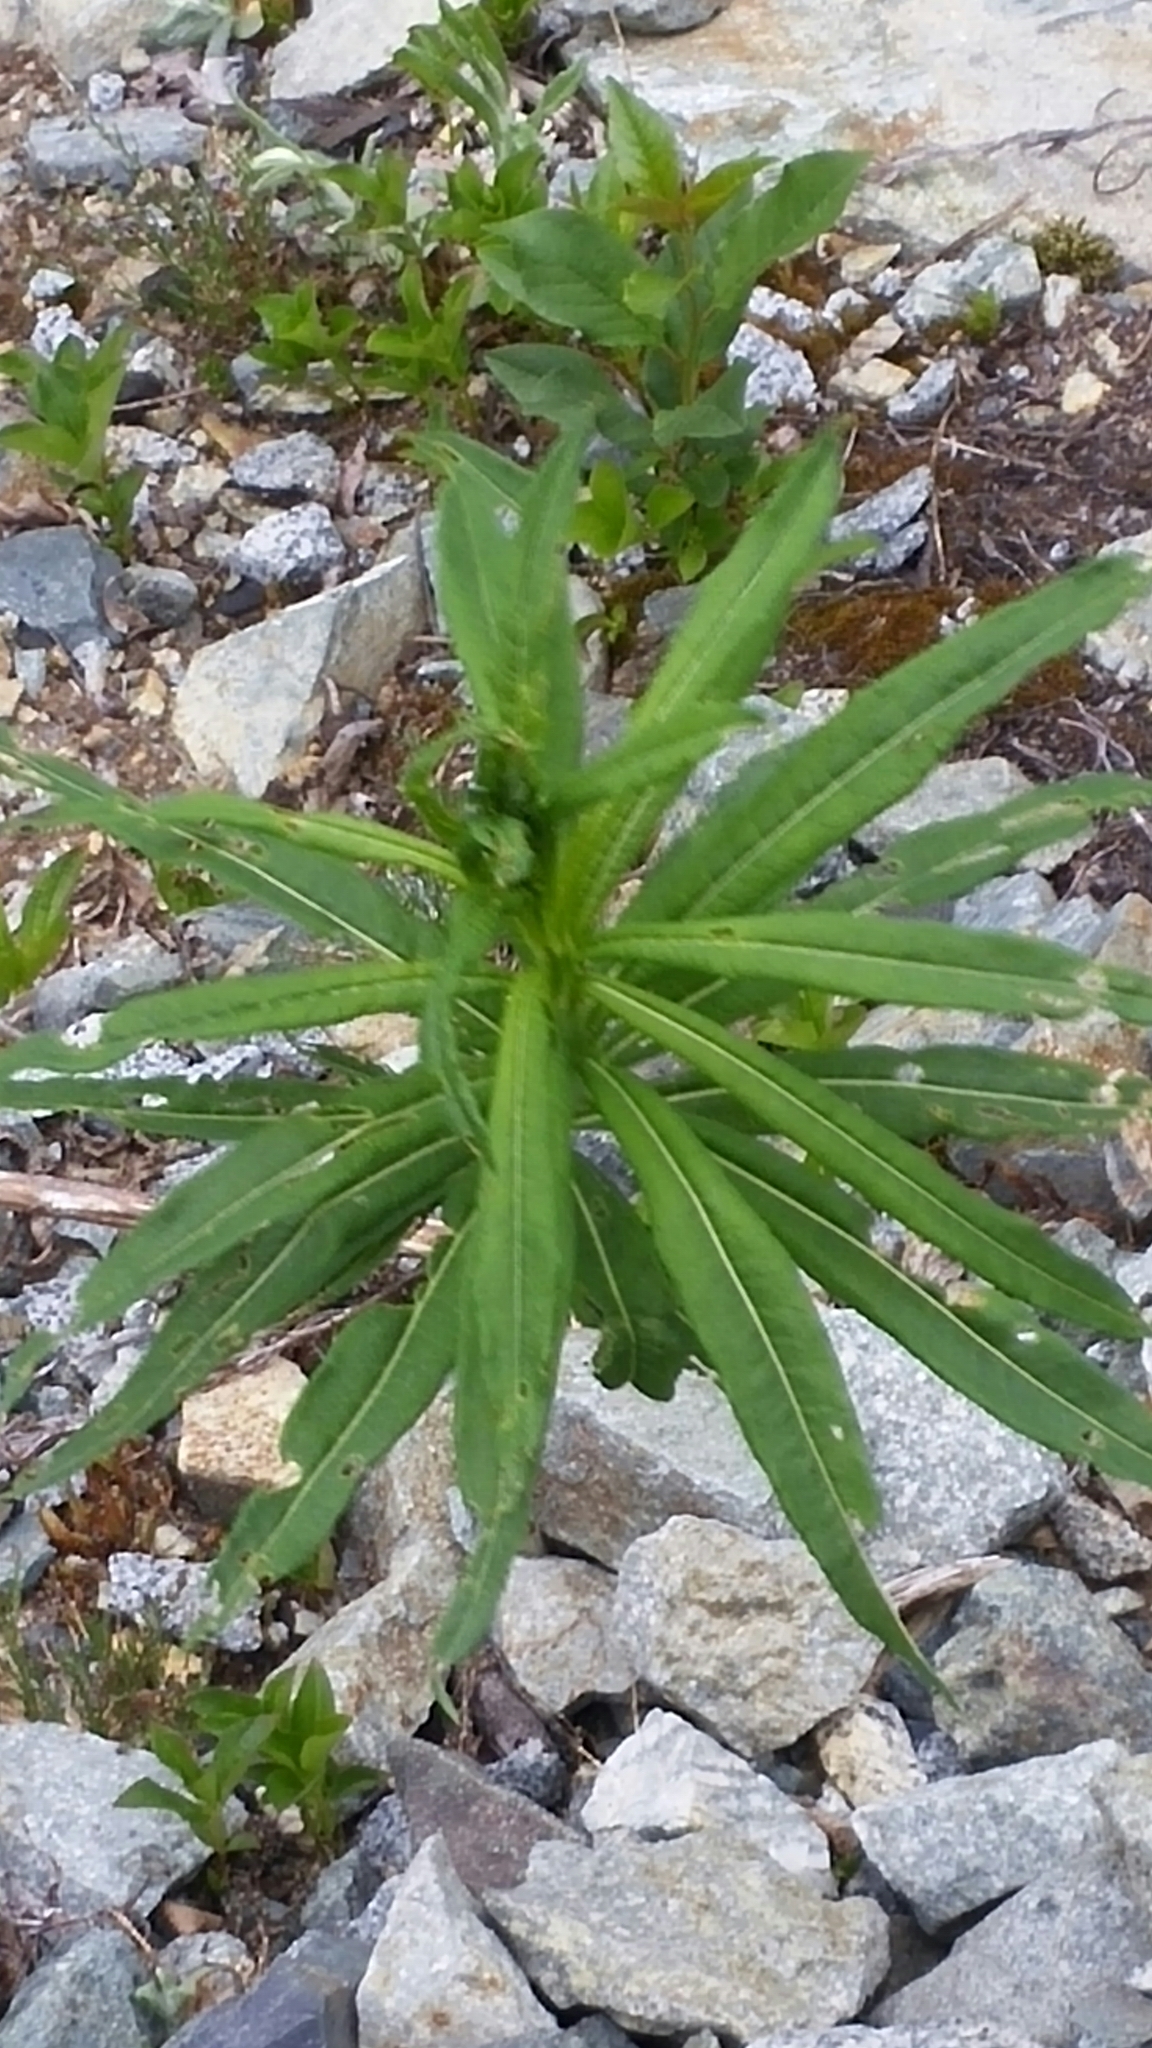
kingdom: Plantae
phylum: Tracheophyta
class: Magnoliopsida
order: Myrtales
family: Onagraceae
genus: Chamaenerion
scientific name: Chamaenerion angustifolium
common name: Fireweed
